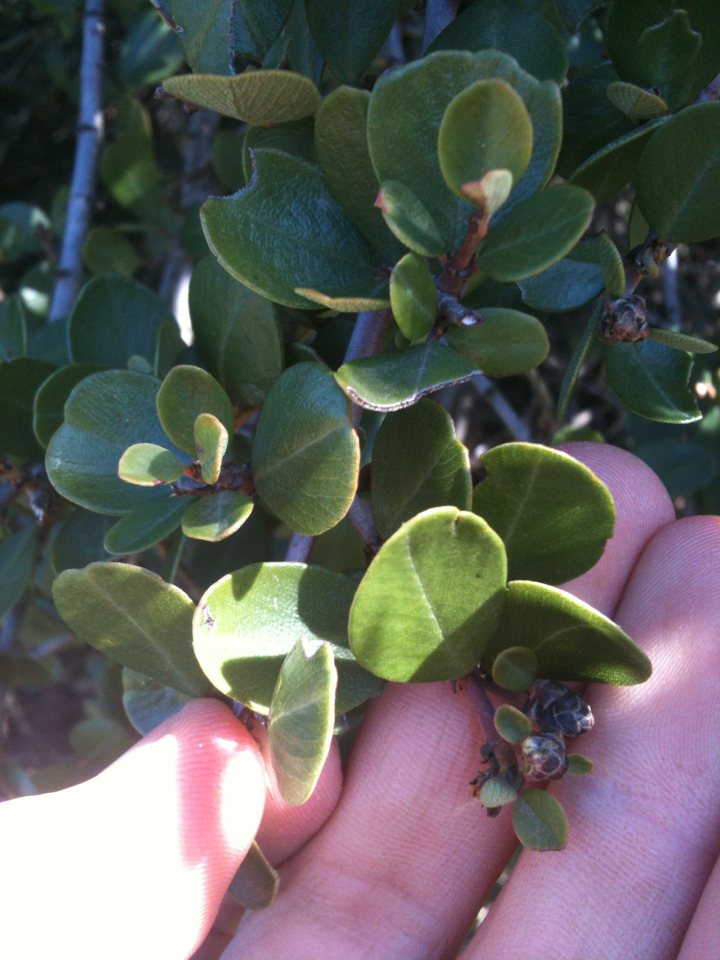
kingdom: Plantae
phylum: Tracheophyta
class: Magnoliopsida
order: Rosales
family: Rhamnaceae
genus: Ceanothus
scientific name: Ceanothus cuneatus
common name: Cuneate ceanothus
